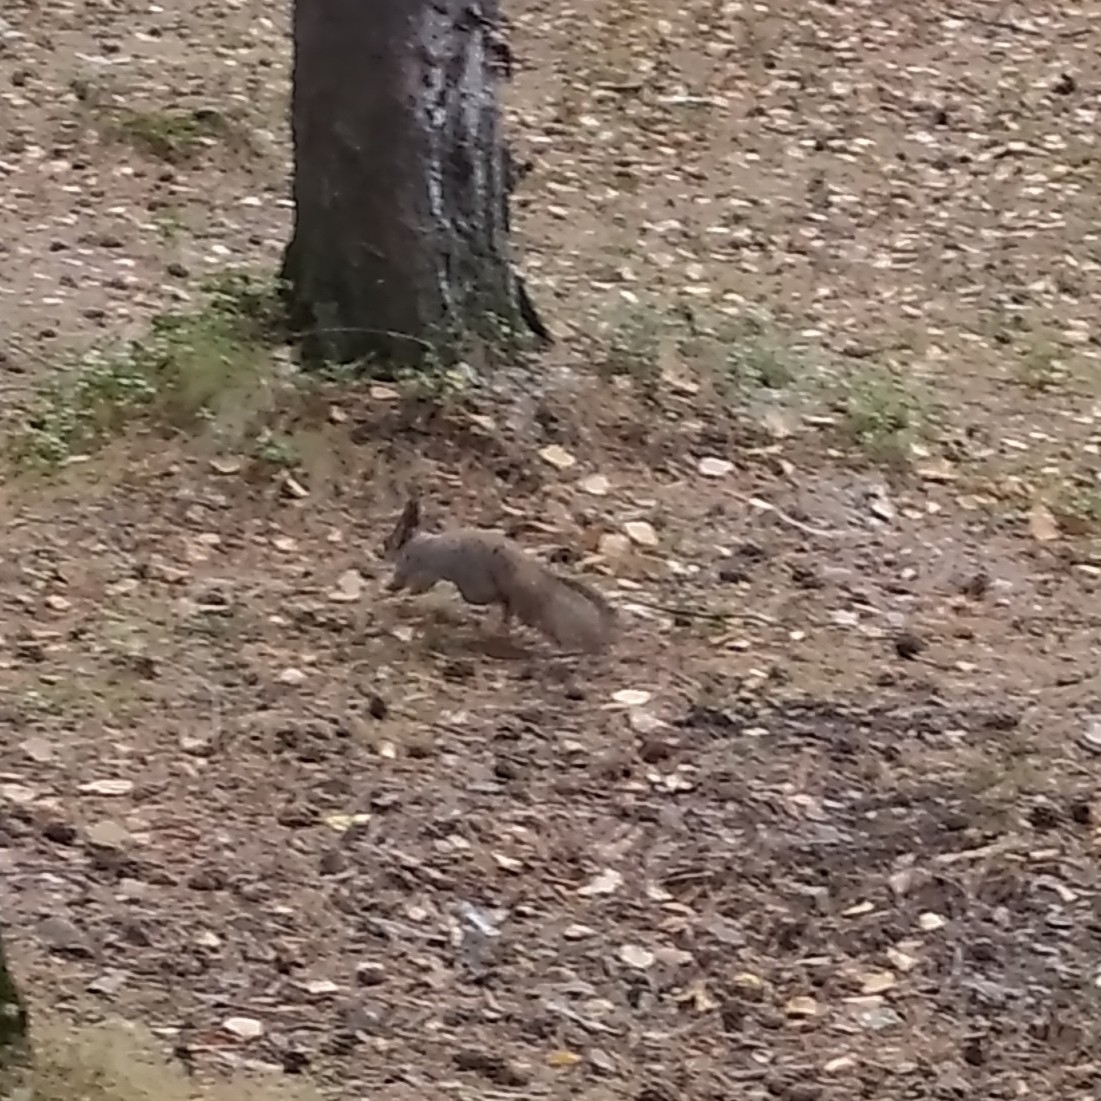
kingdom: Animalia
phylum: Chordata
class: Mammalia
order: Rodentia
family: Sciuridae
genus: Sciurus
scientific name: Sciurus vulgaris
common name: Eurasian red squirrel
